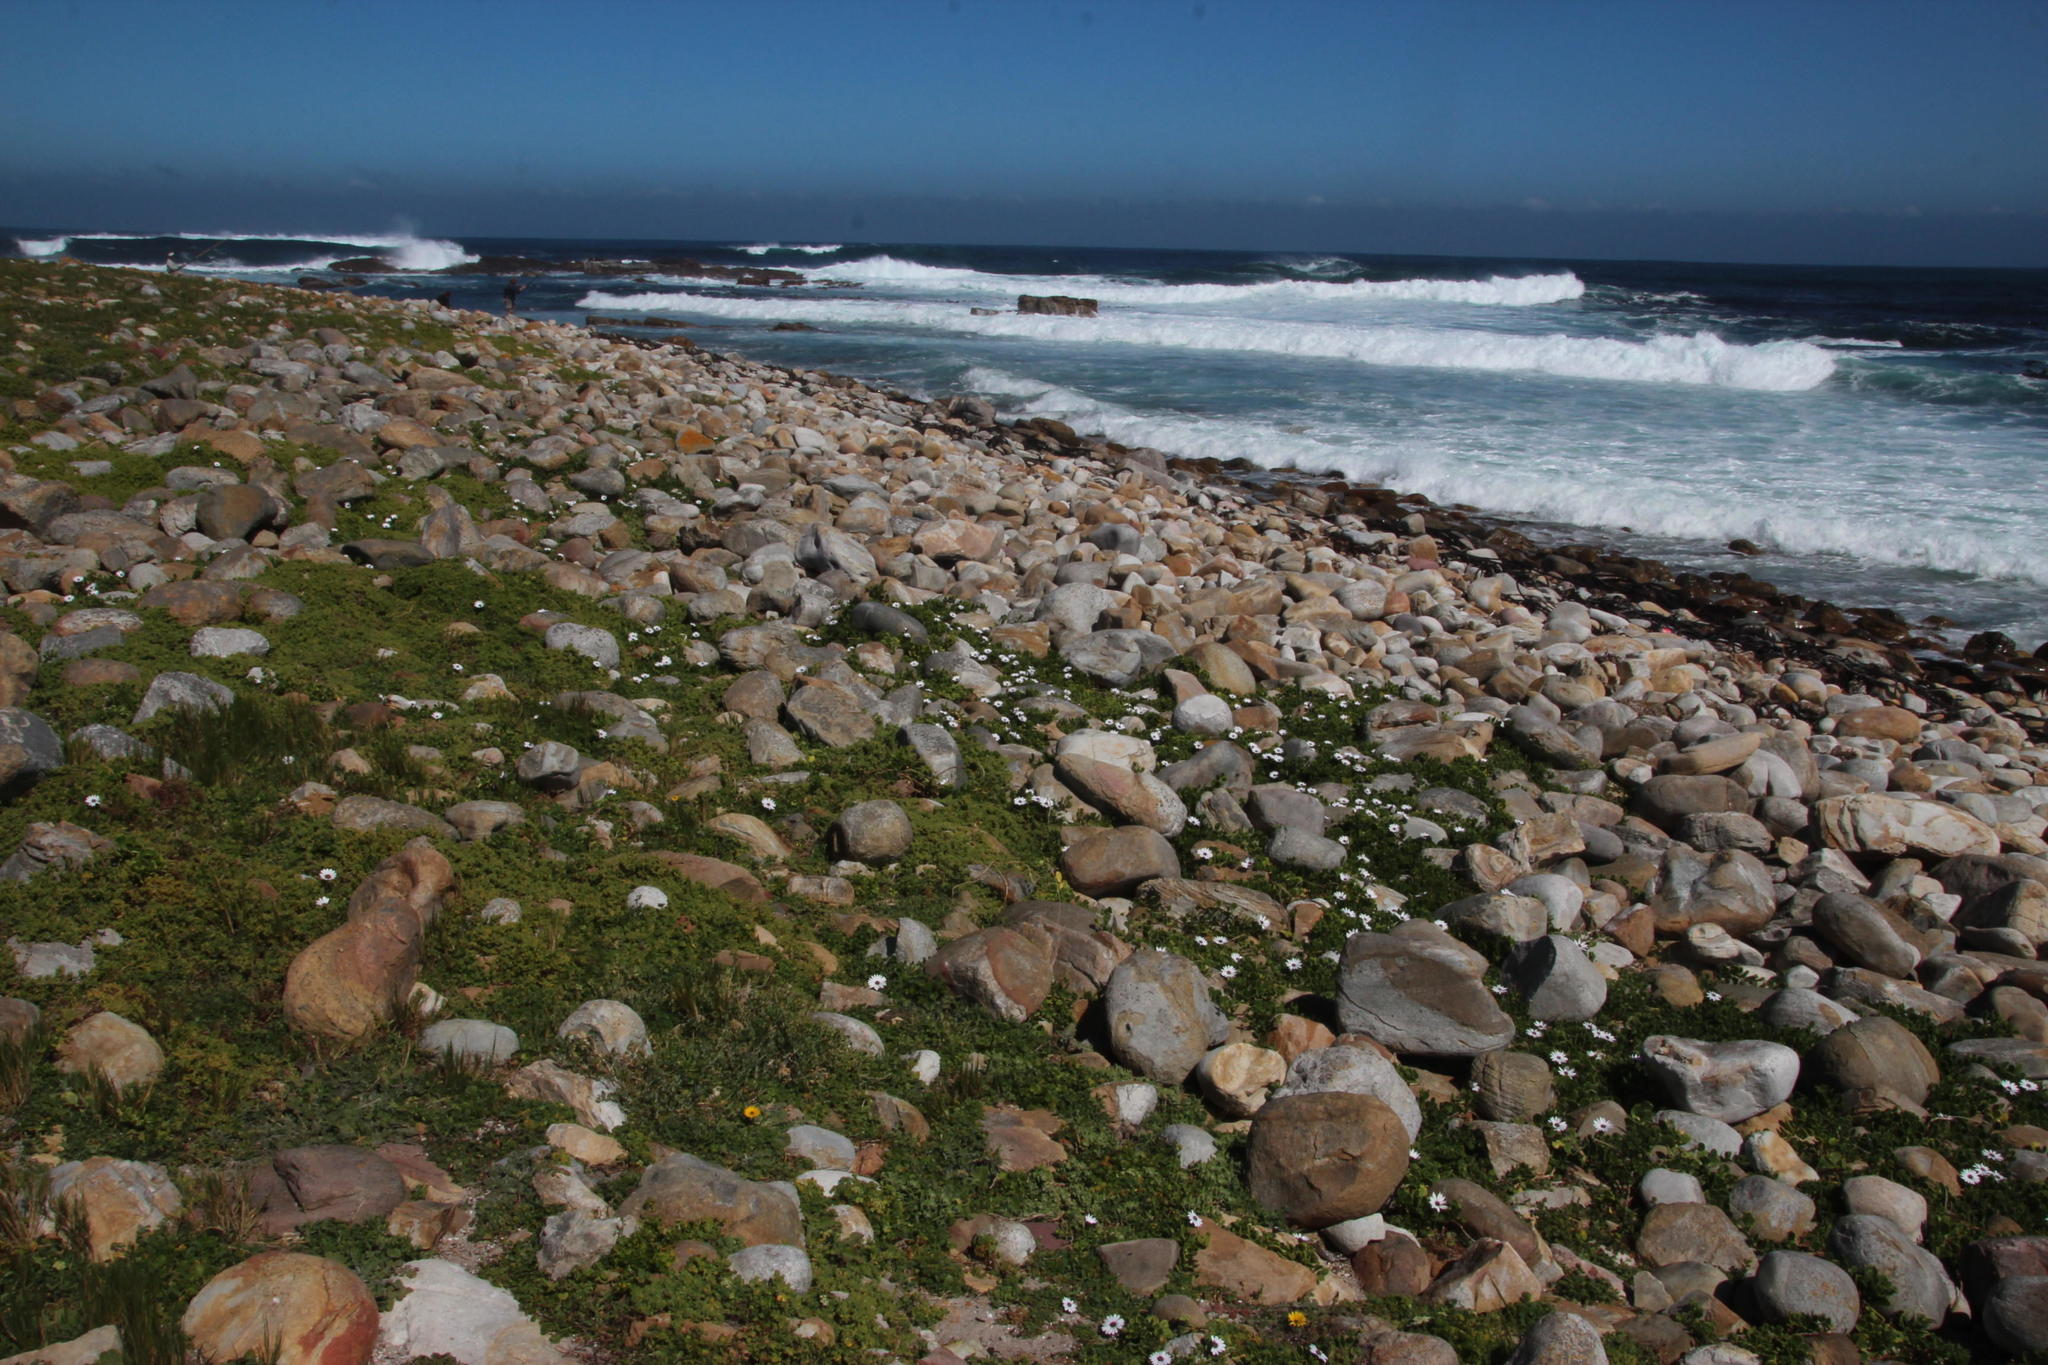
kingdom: Plantae
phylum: Tracheophyta
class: Magnoliopsida
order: Asterales
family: Asteraceae
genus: Dimorphotheca
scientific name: Dimorphotheca fruticosa
